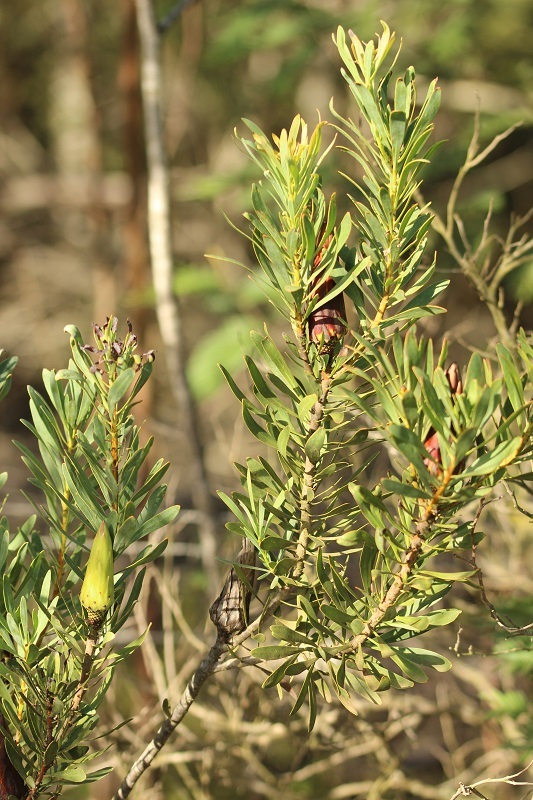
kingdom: Plantae
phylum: Tracheophyta
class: Magnoliopsida
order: Proteales
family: Proteaceae
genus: Protea
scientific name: Protea repens
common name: Sugarbush
